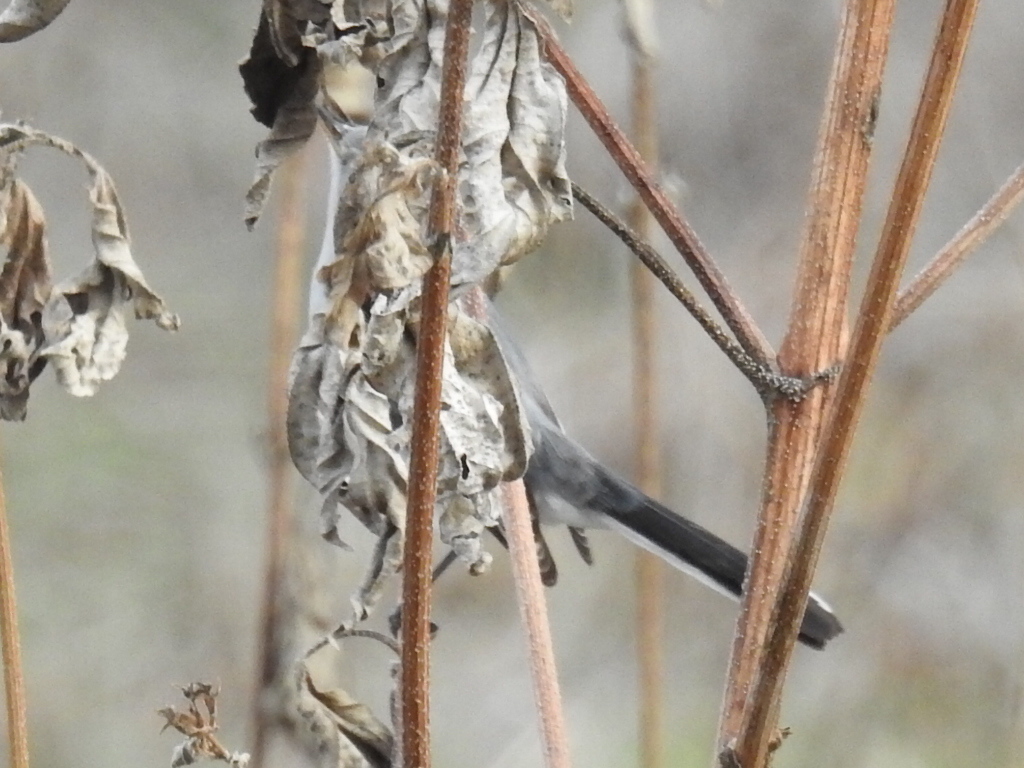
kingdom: Animalia
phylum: Chordata
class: Aves
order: Passeriformes
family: Polioptilidae
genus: Polioptila
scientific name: Polioptila caerulea
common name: Blue-gray gnatcatcher
